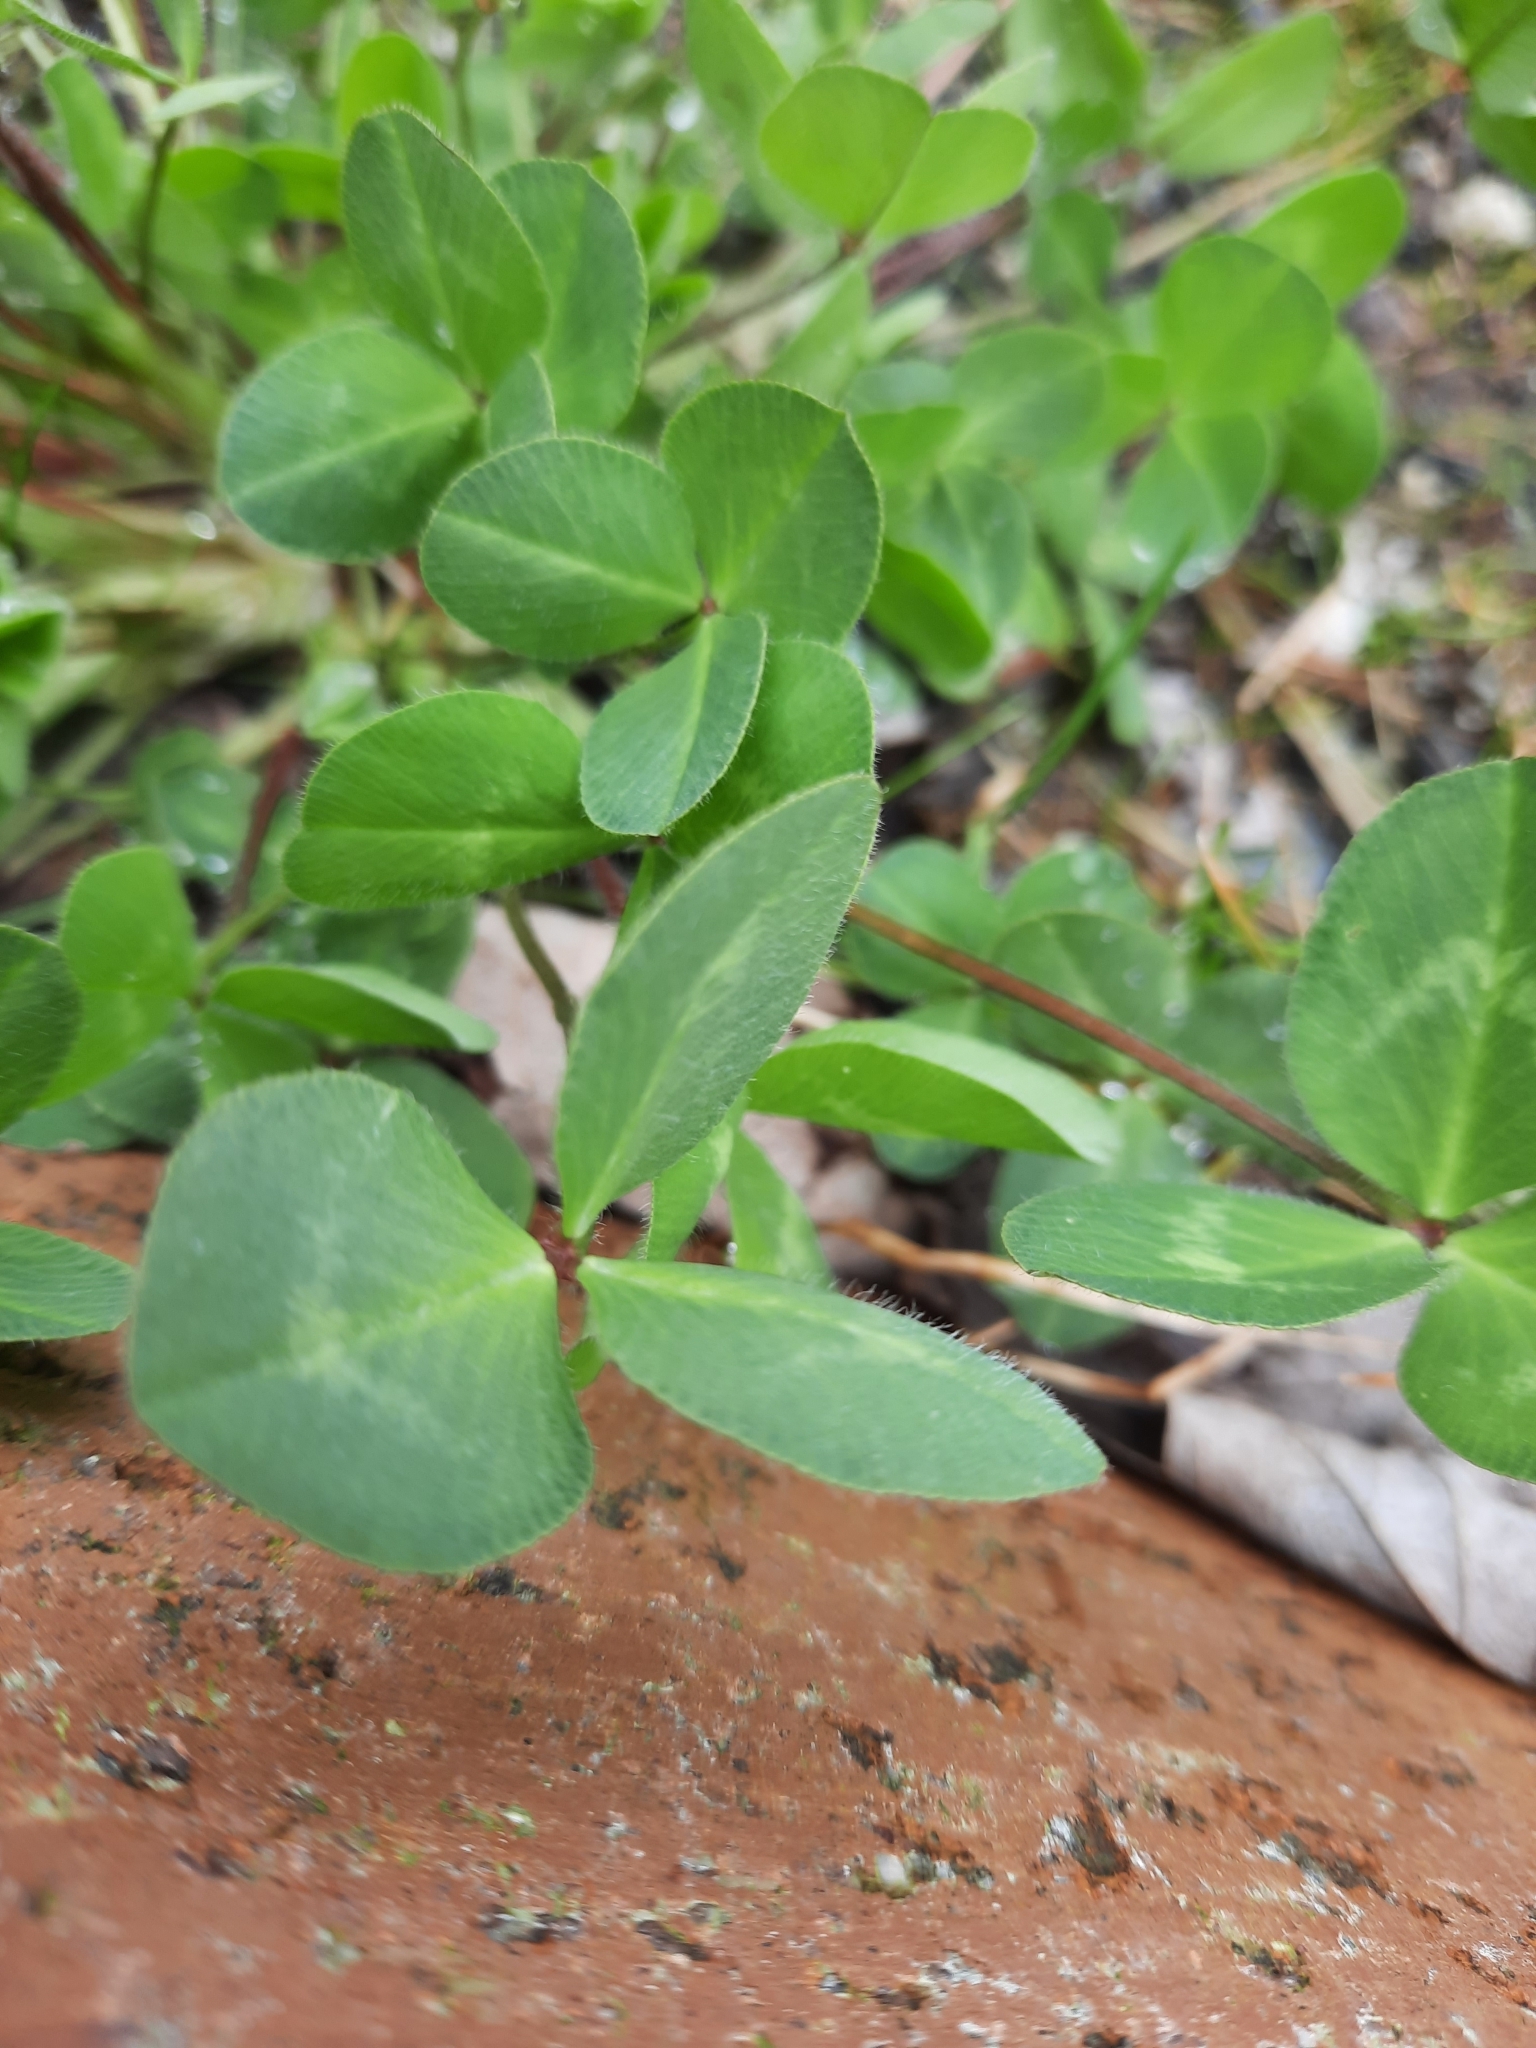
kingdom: Plantae
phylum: Tracheophyta
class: Magnoliopsida
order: Fabales
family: Fabaceae
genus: Trifolium
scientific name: Trifolium pratense
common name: Red clover
